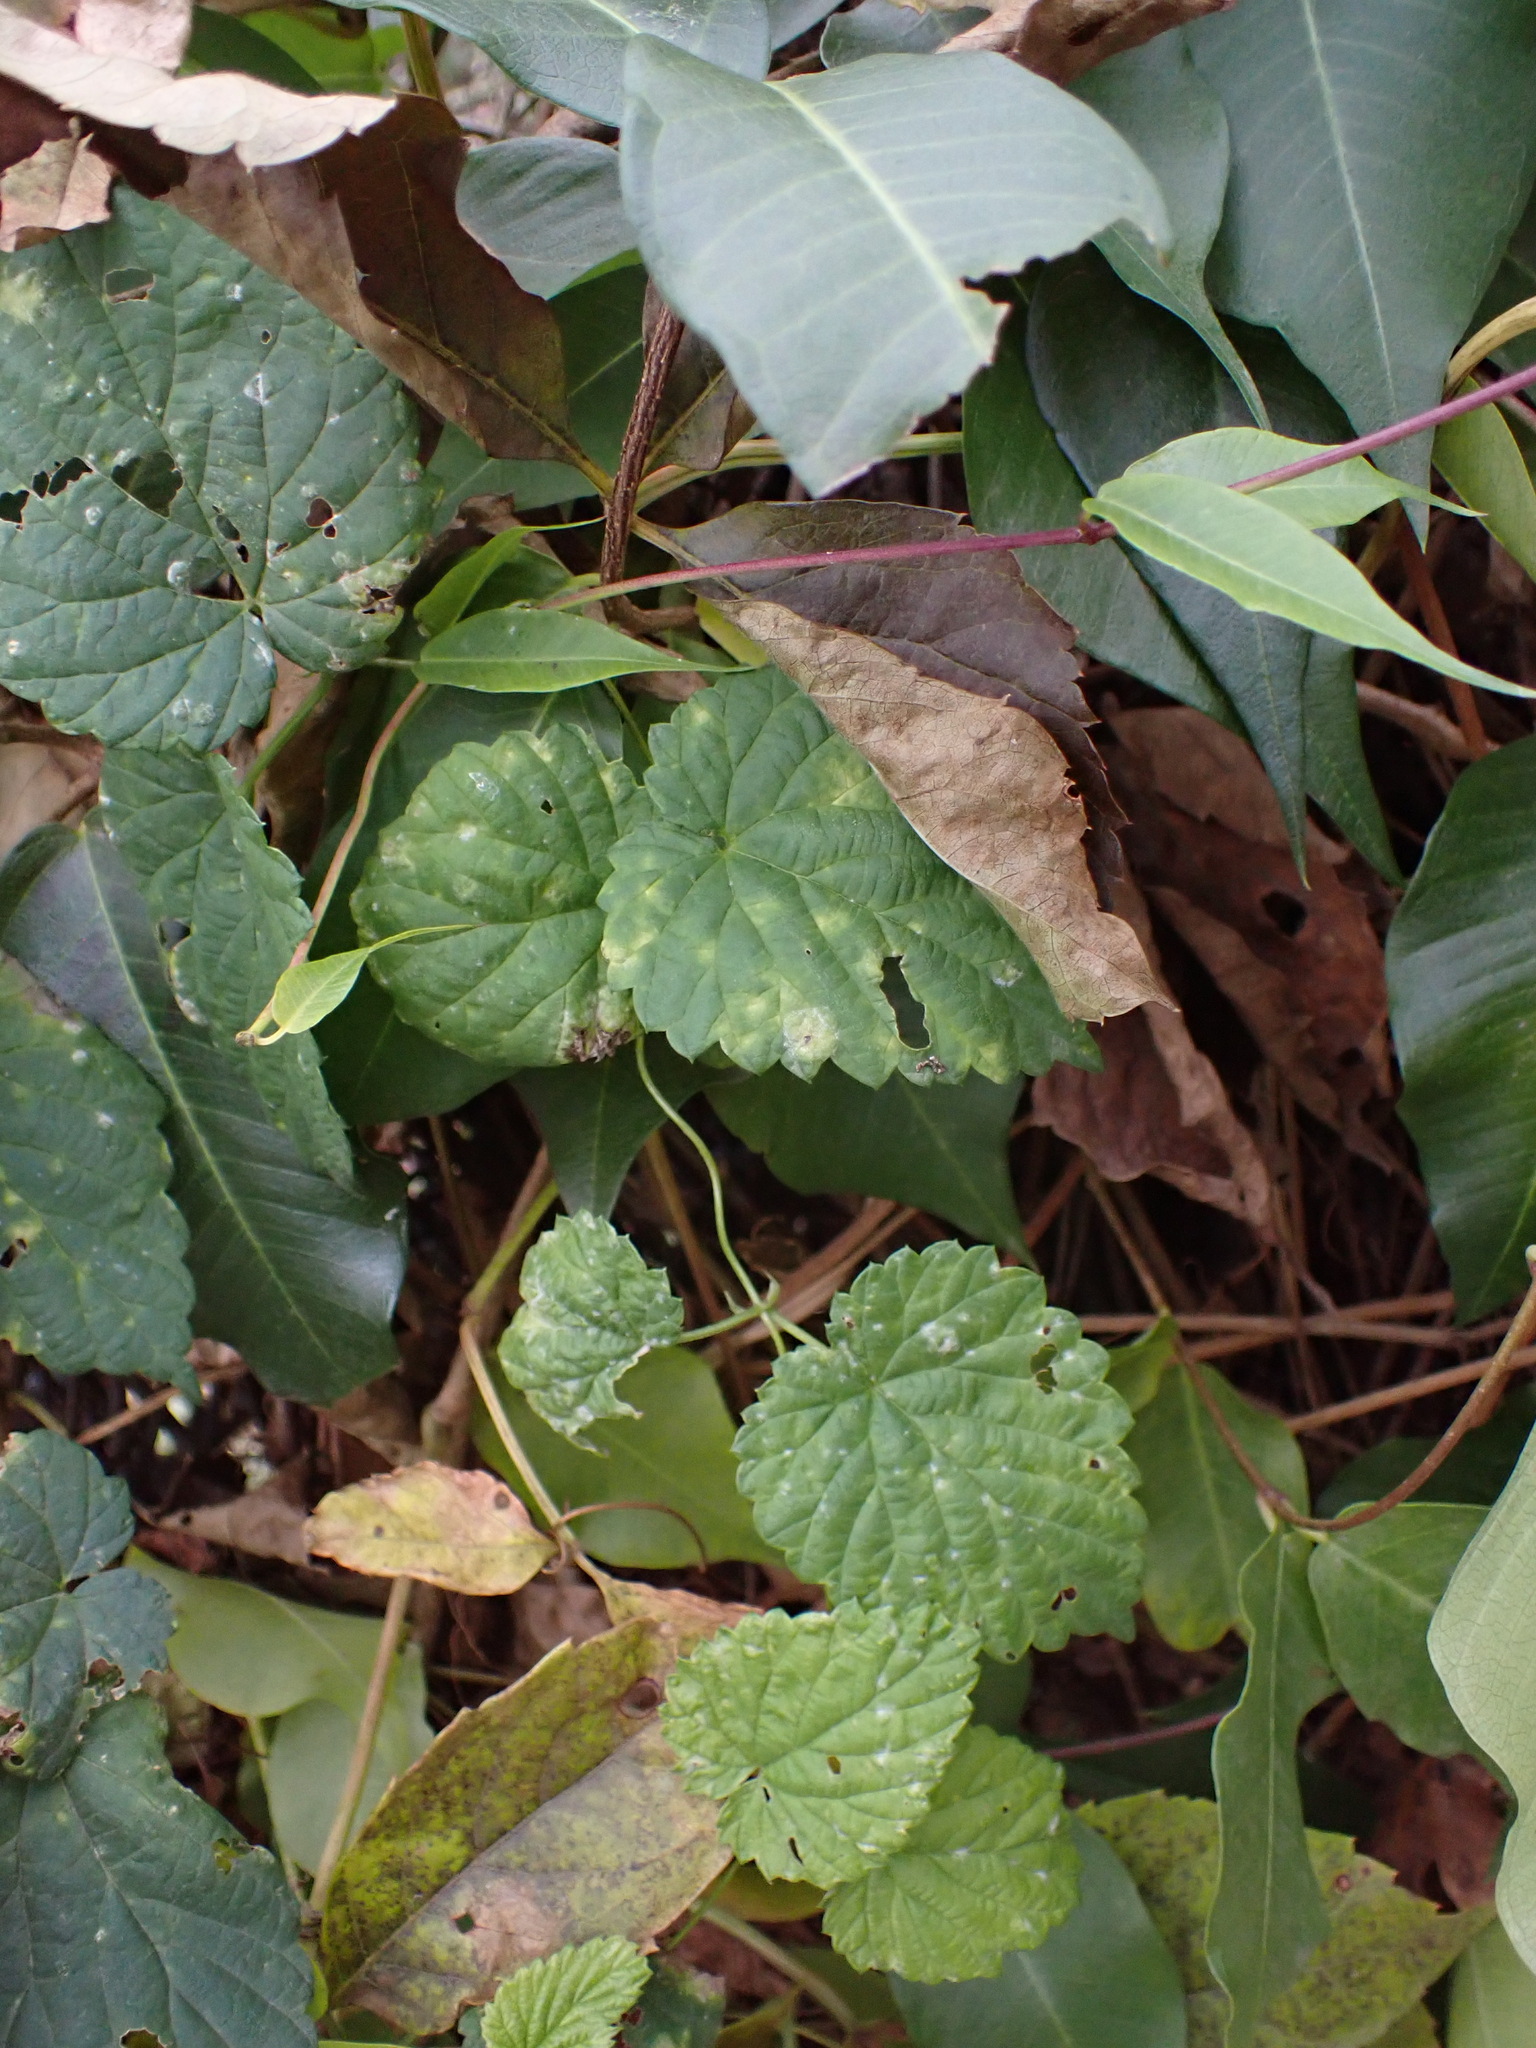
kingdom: Fungi
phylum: Ascomycota
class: Leotiomycetes
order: Helotiales
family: Erysiphaceae
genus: Podosphaera
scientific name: Podosphaera macularis
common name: Powdery mildew
